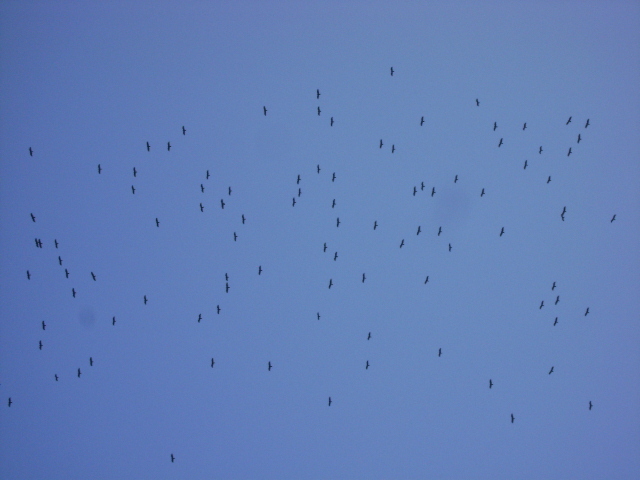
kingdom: Animalia
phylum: Chordata
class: Aves
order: Accipitriformes
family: Cathartidae
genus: Cathartes
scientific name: Cathartes aura
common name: Turkey vulture
